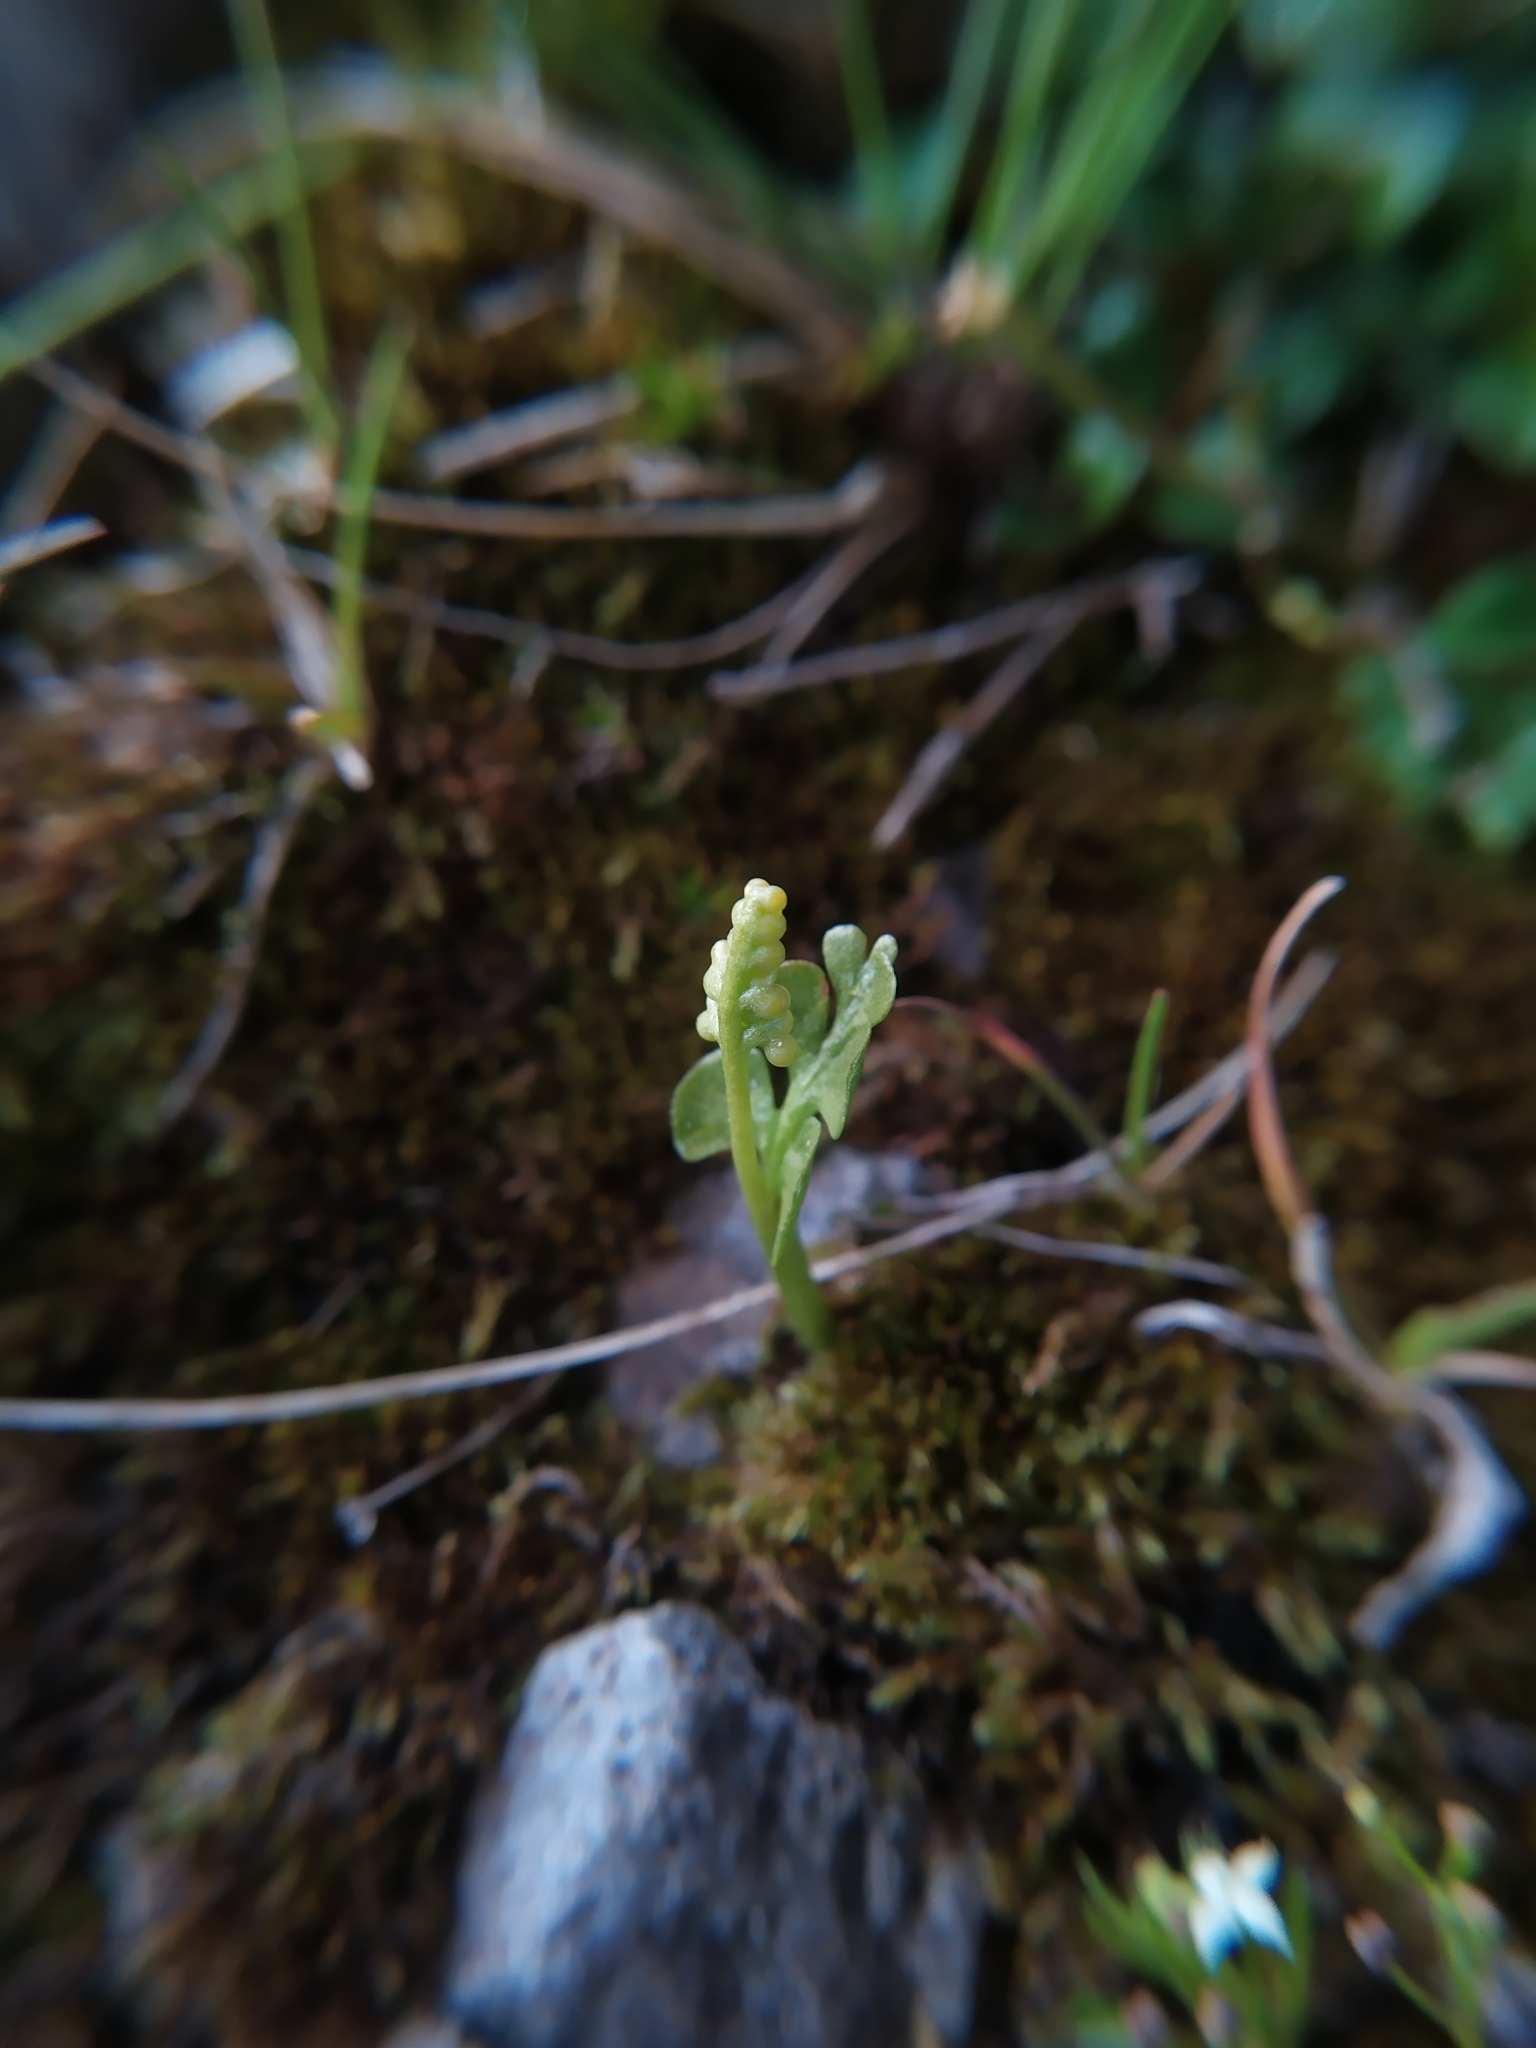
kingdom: Plantae
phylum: Tracheophyta
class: Polypodiopsida
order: Ophioglossales
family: Ophioglossaceae
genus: Botrychium
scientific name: Botrychium lunaria
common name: Moonwort
